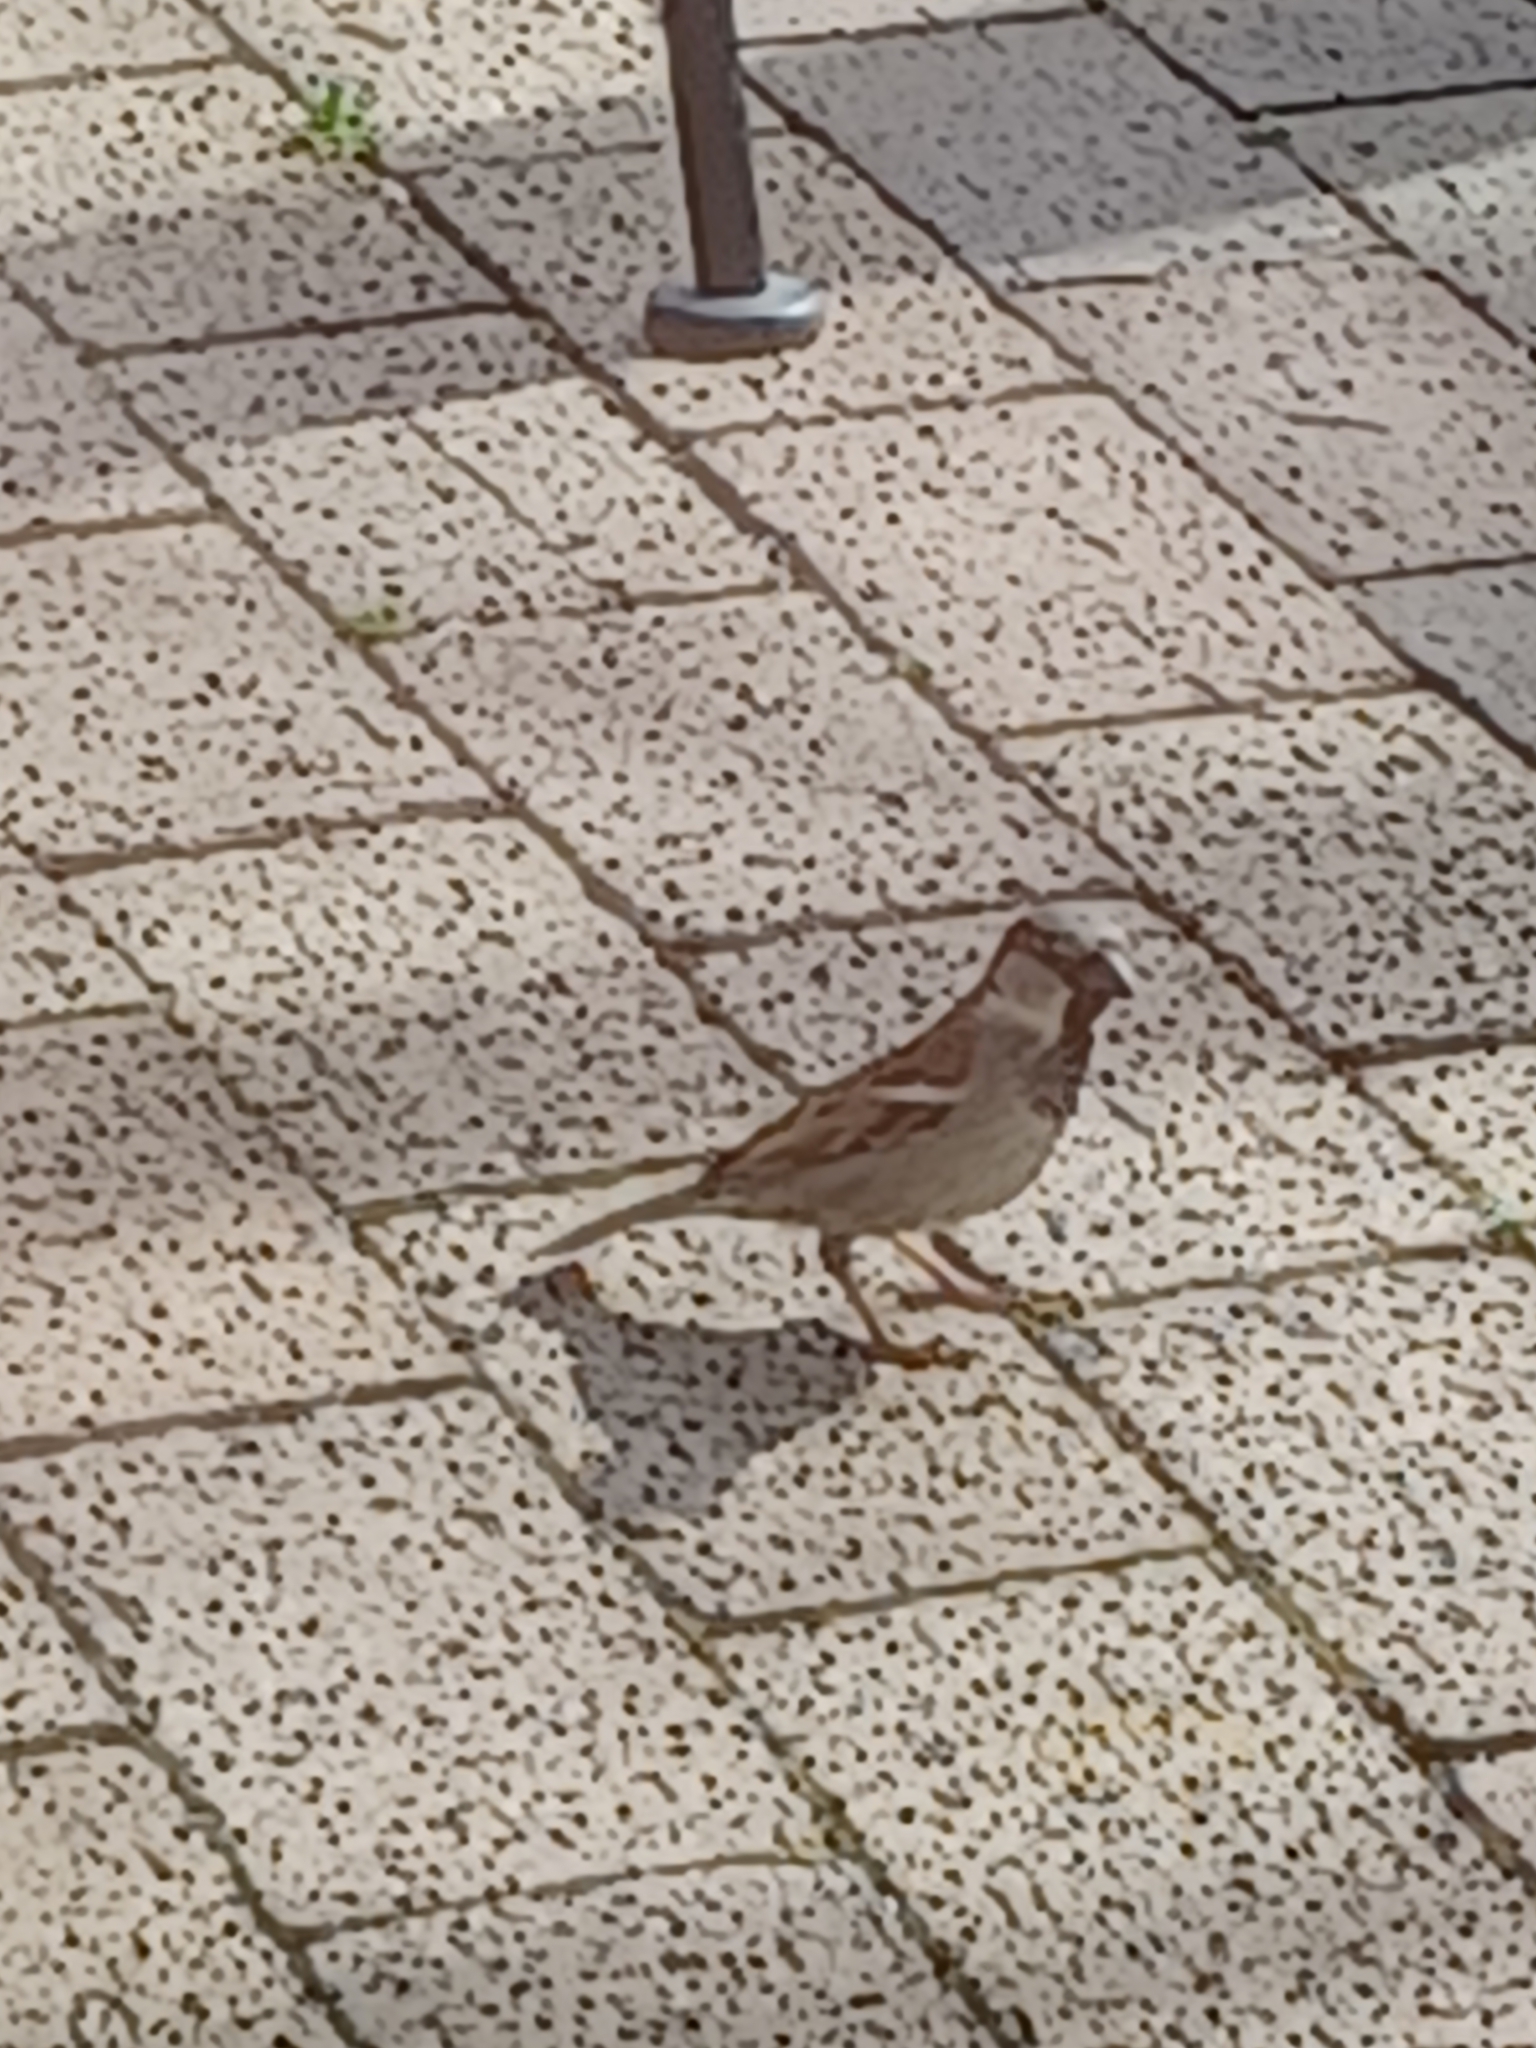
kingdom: Animalia
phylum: Chordata
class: Aves
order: Passeriformes
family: Passeridae
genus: Passer
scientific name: Passer domesticus
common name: House sparrow
